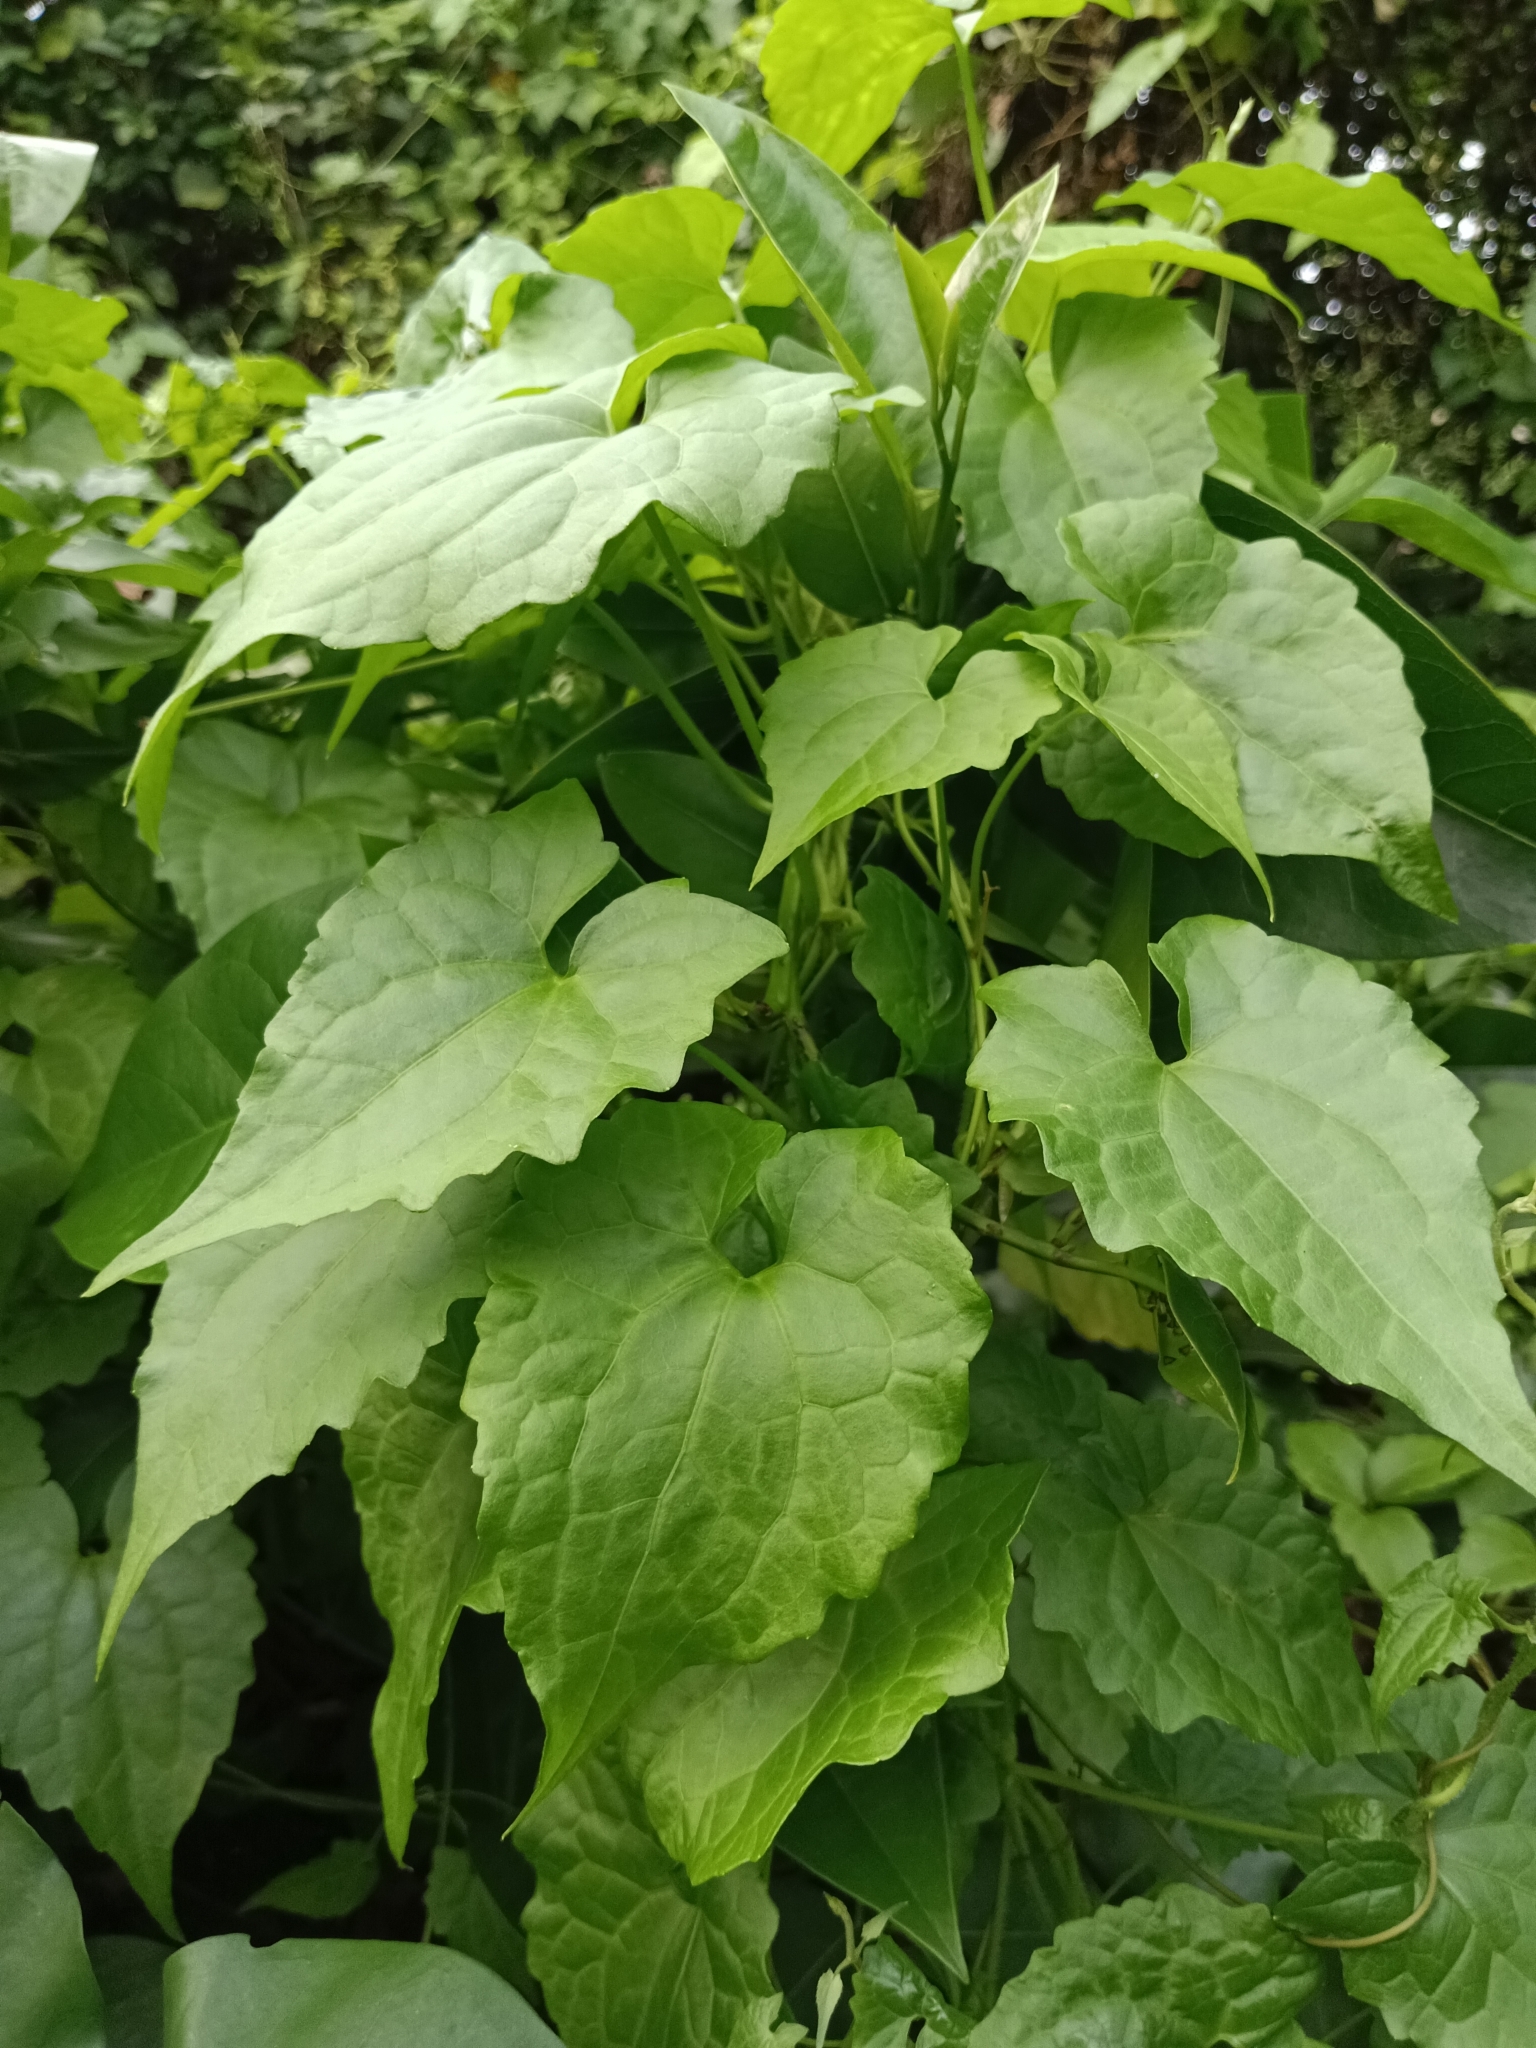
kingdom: Plantae
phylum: Tracheophyta
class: Magnoliopsida
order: Asterales
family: Asteraceae
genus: Mikania
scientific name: Mikania micrantha
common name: Mile-a-minute
